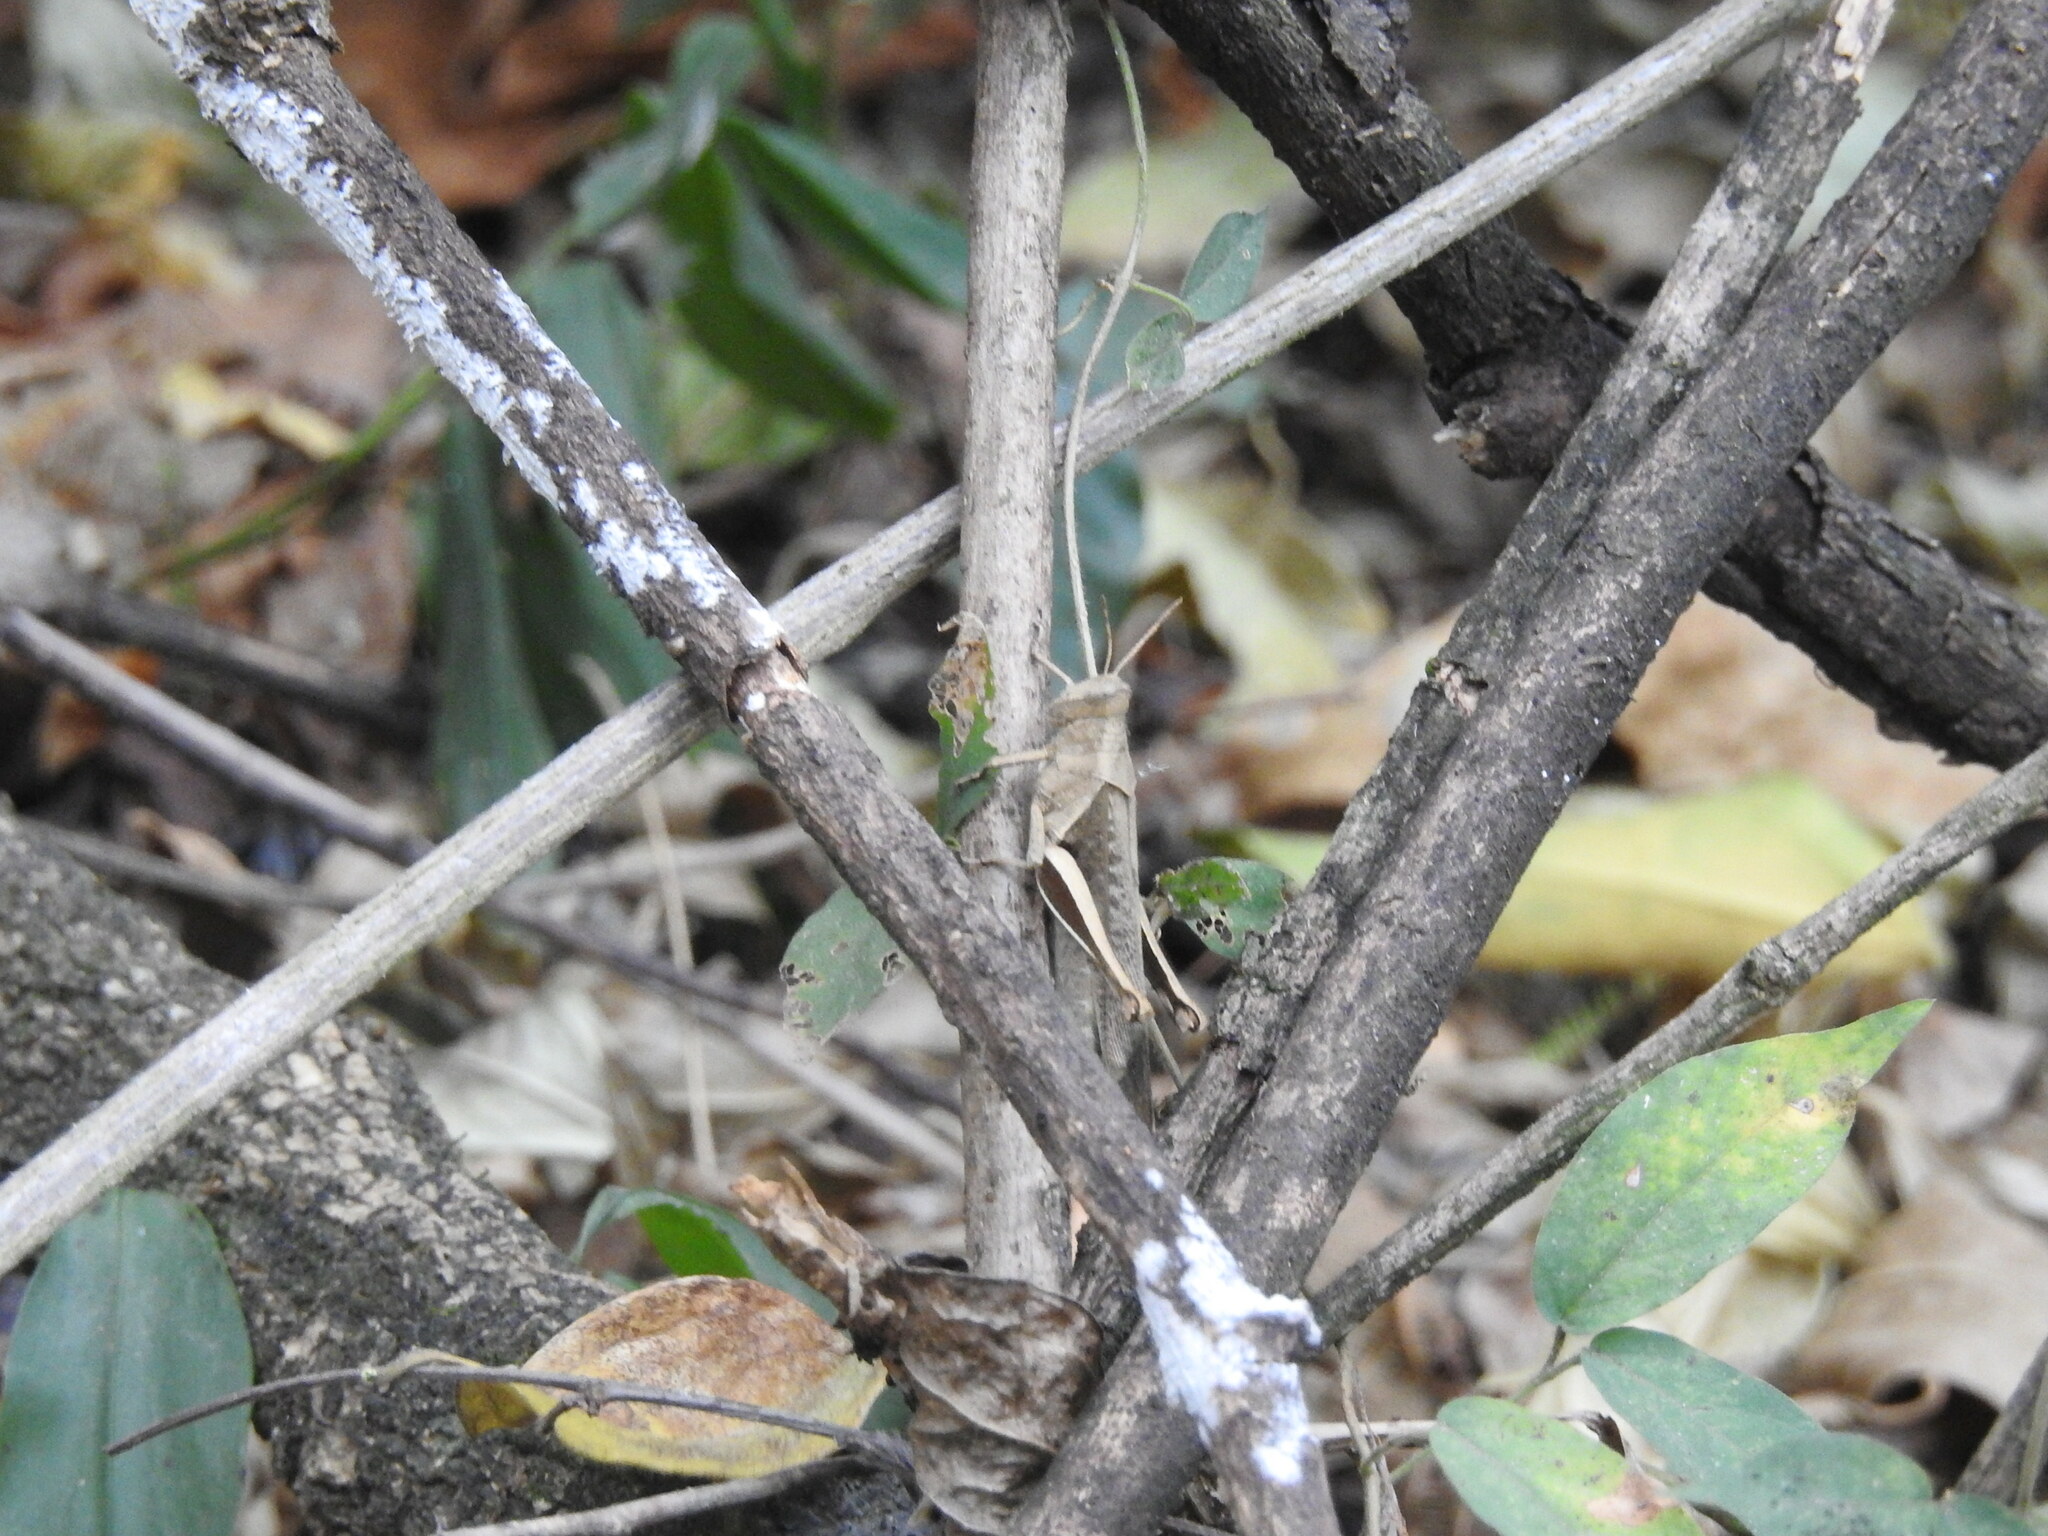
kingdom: Animalia
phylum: Arthropoda
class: Insecta
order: Orthoptera
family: Acrididae
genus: Abracris
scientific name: Abracris flavolineata
